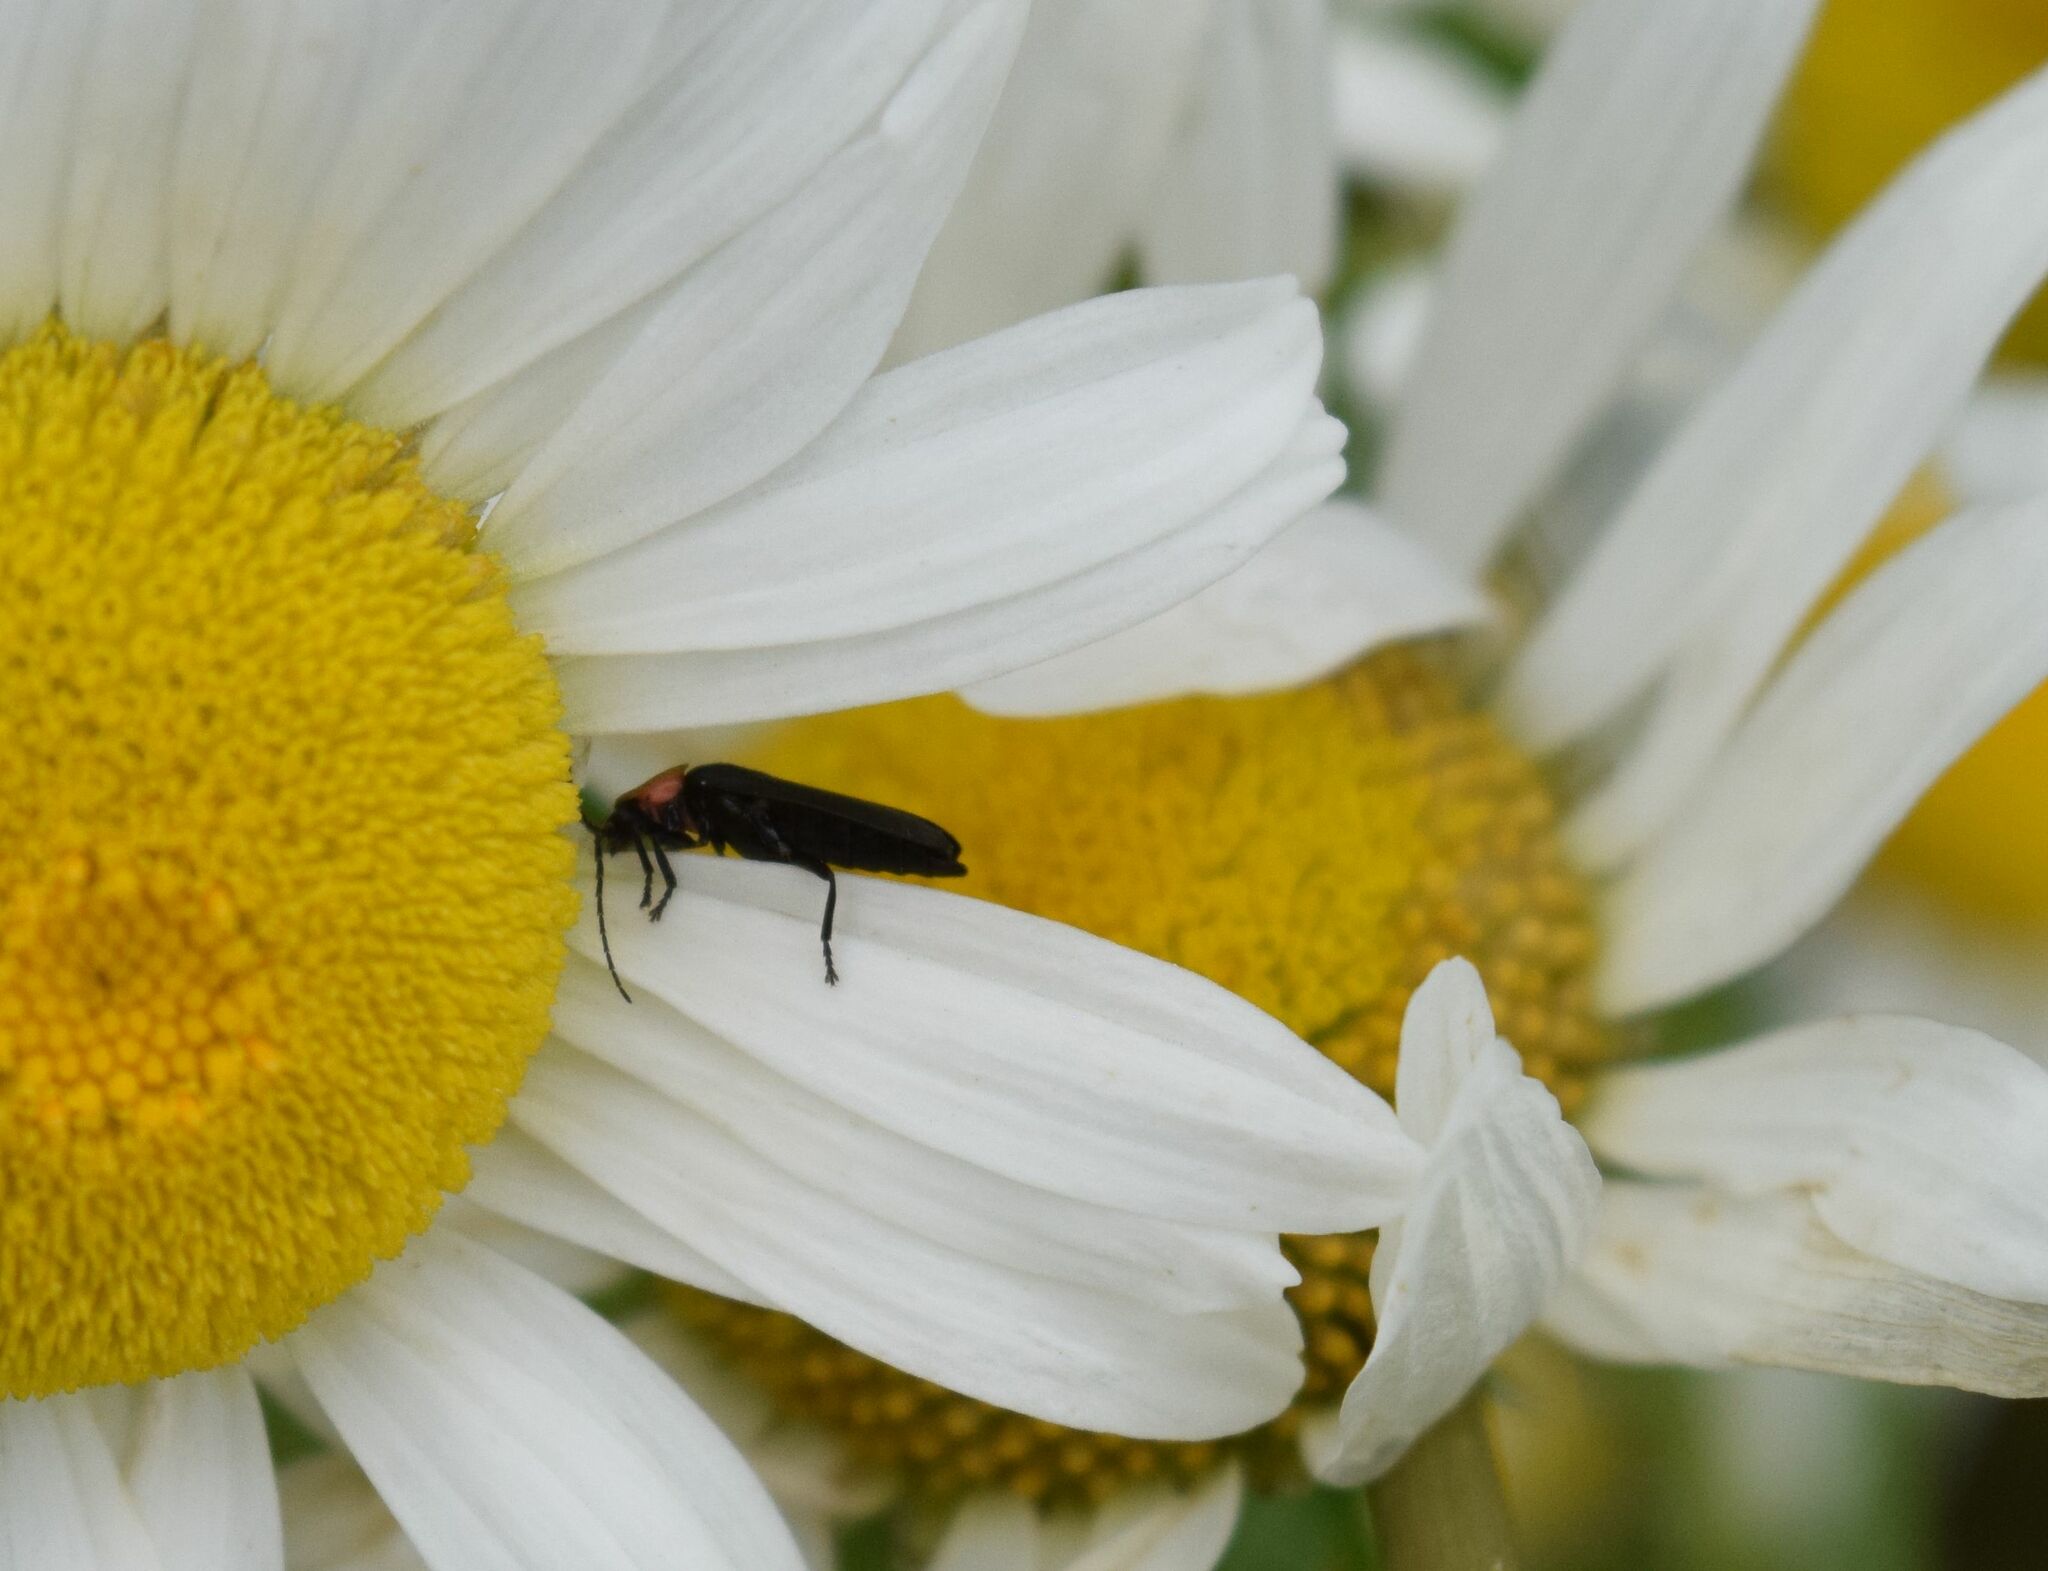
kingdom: Animalia
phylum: Arthropoda
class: Insecta
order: Coleoptera
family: Lampyridae
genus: Lucidota
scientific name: Lucidota atra
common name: Black firefly
